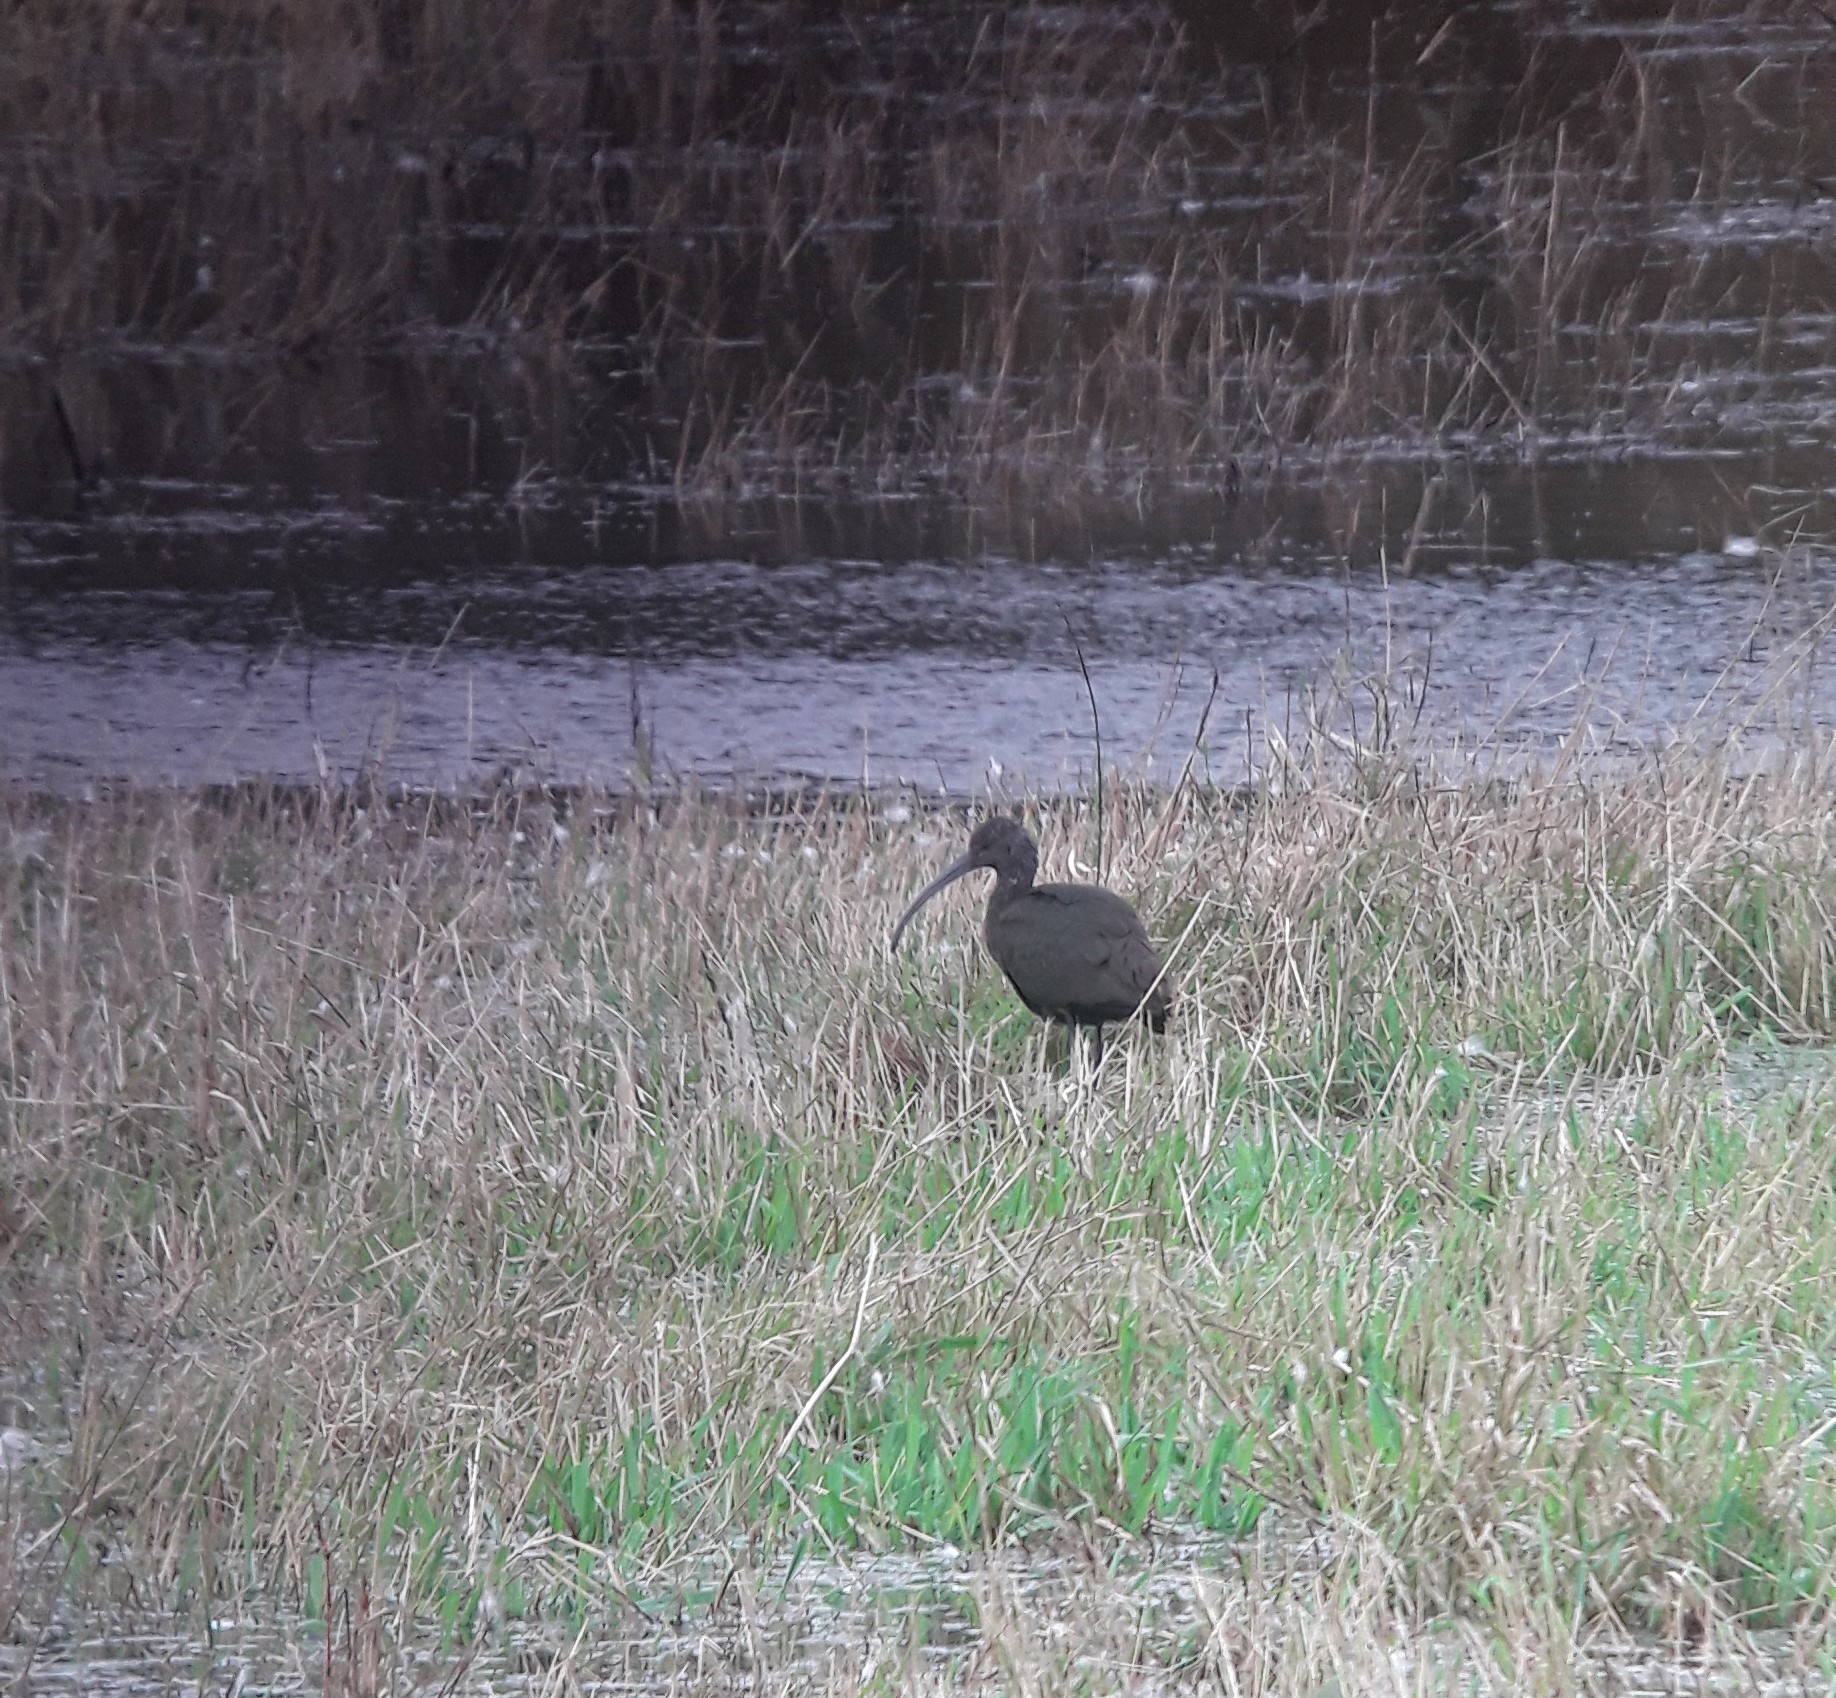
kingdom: Animalia
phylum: Chordata
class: Aves
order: Pelecaniformes
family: Threskiornithidae
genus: Plegadis
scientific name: Plegadis
